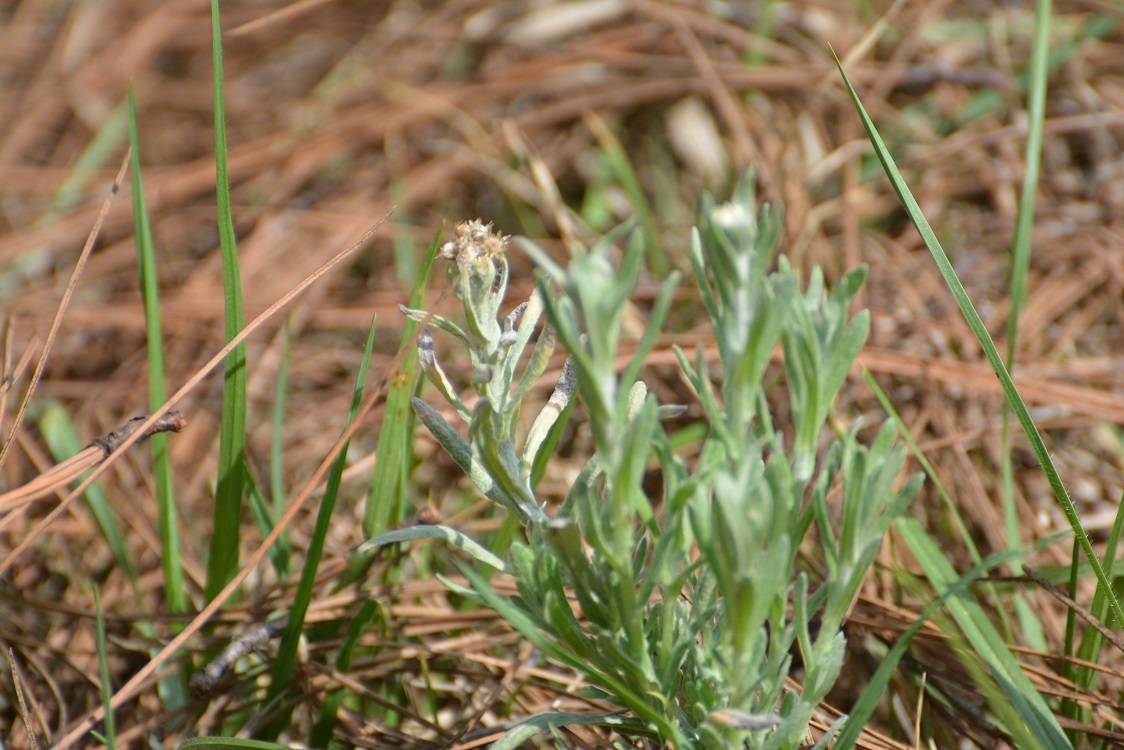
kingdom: Plantae
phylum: Tracheophyta
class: Magnoliopsida
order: Asterales
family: Asteraceae
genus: Pseudognaphalium
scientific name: Pseudognaphalium chartaceum
